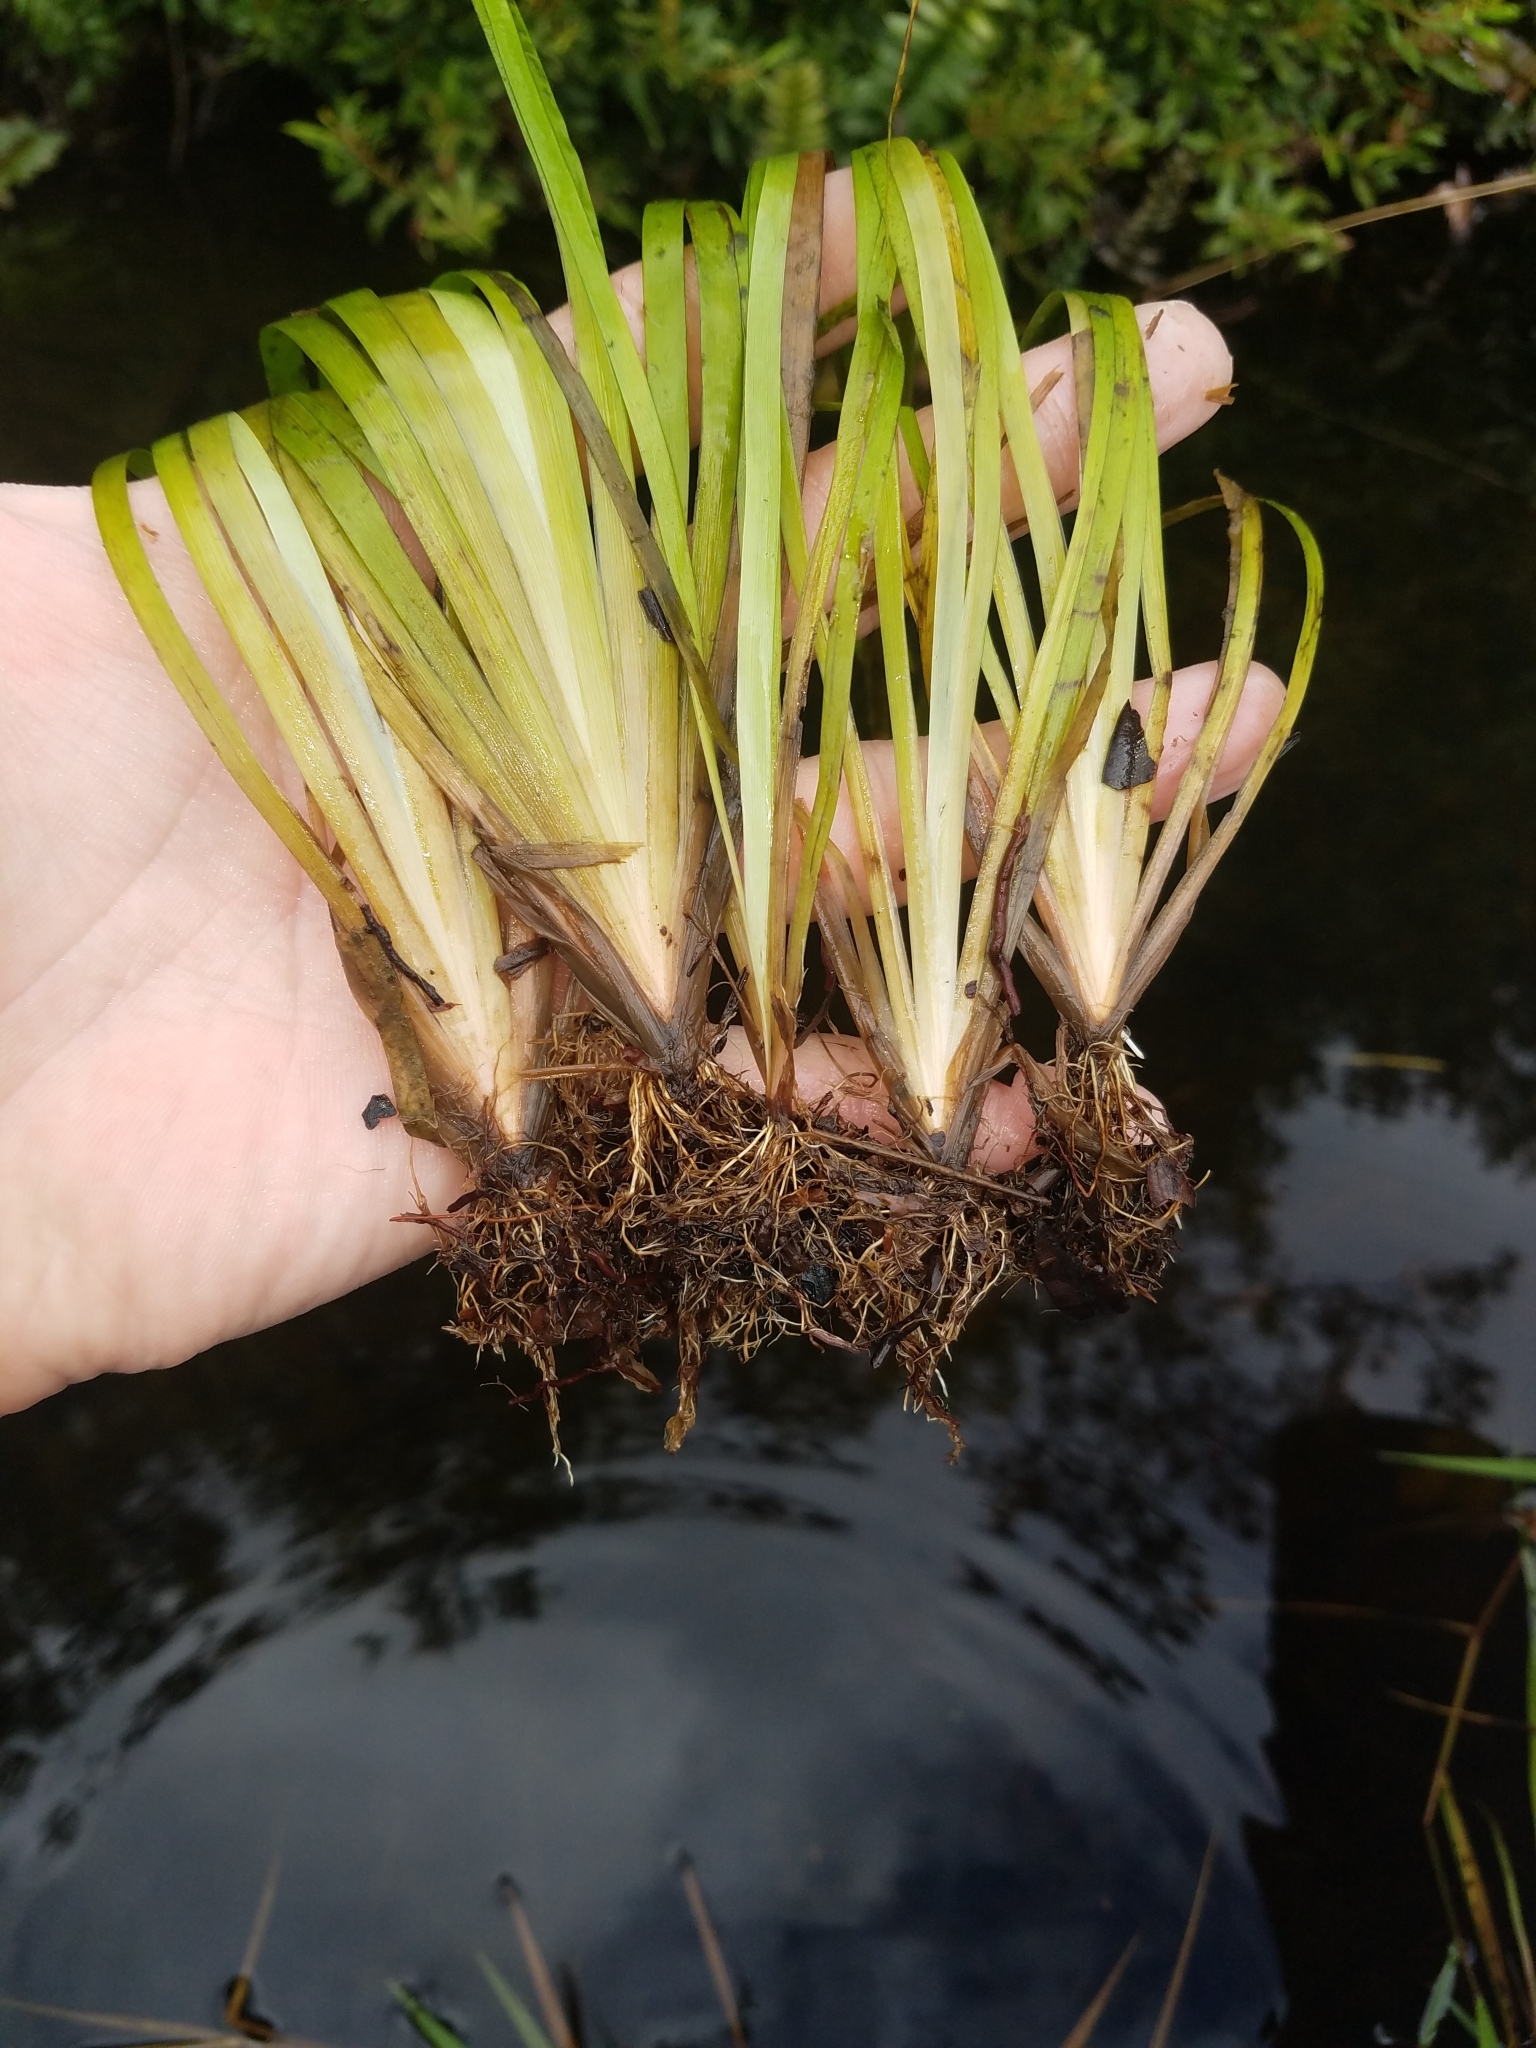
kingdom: Plantae
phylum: Tracheophyta
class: Liliopsida
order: Poales
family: Xyridaceae
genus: Xyris
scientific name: Xyris correlliorum
